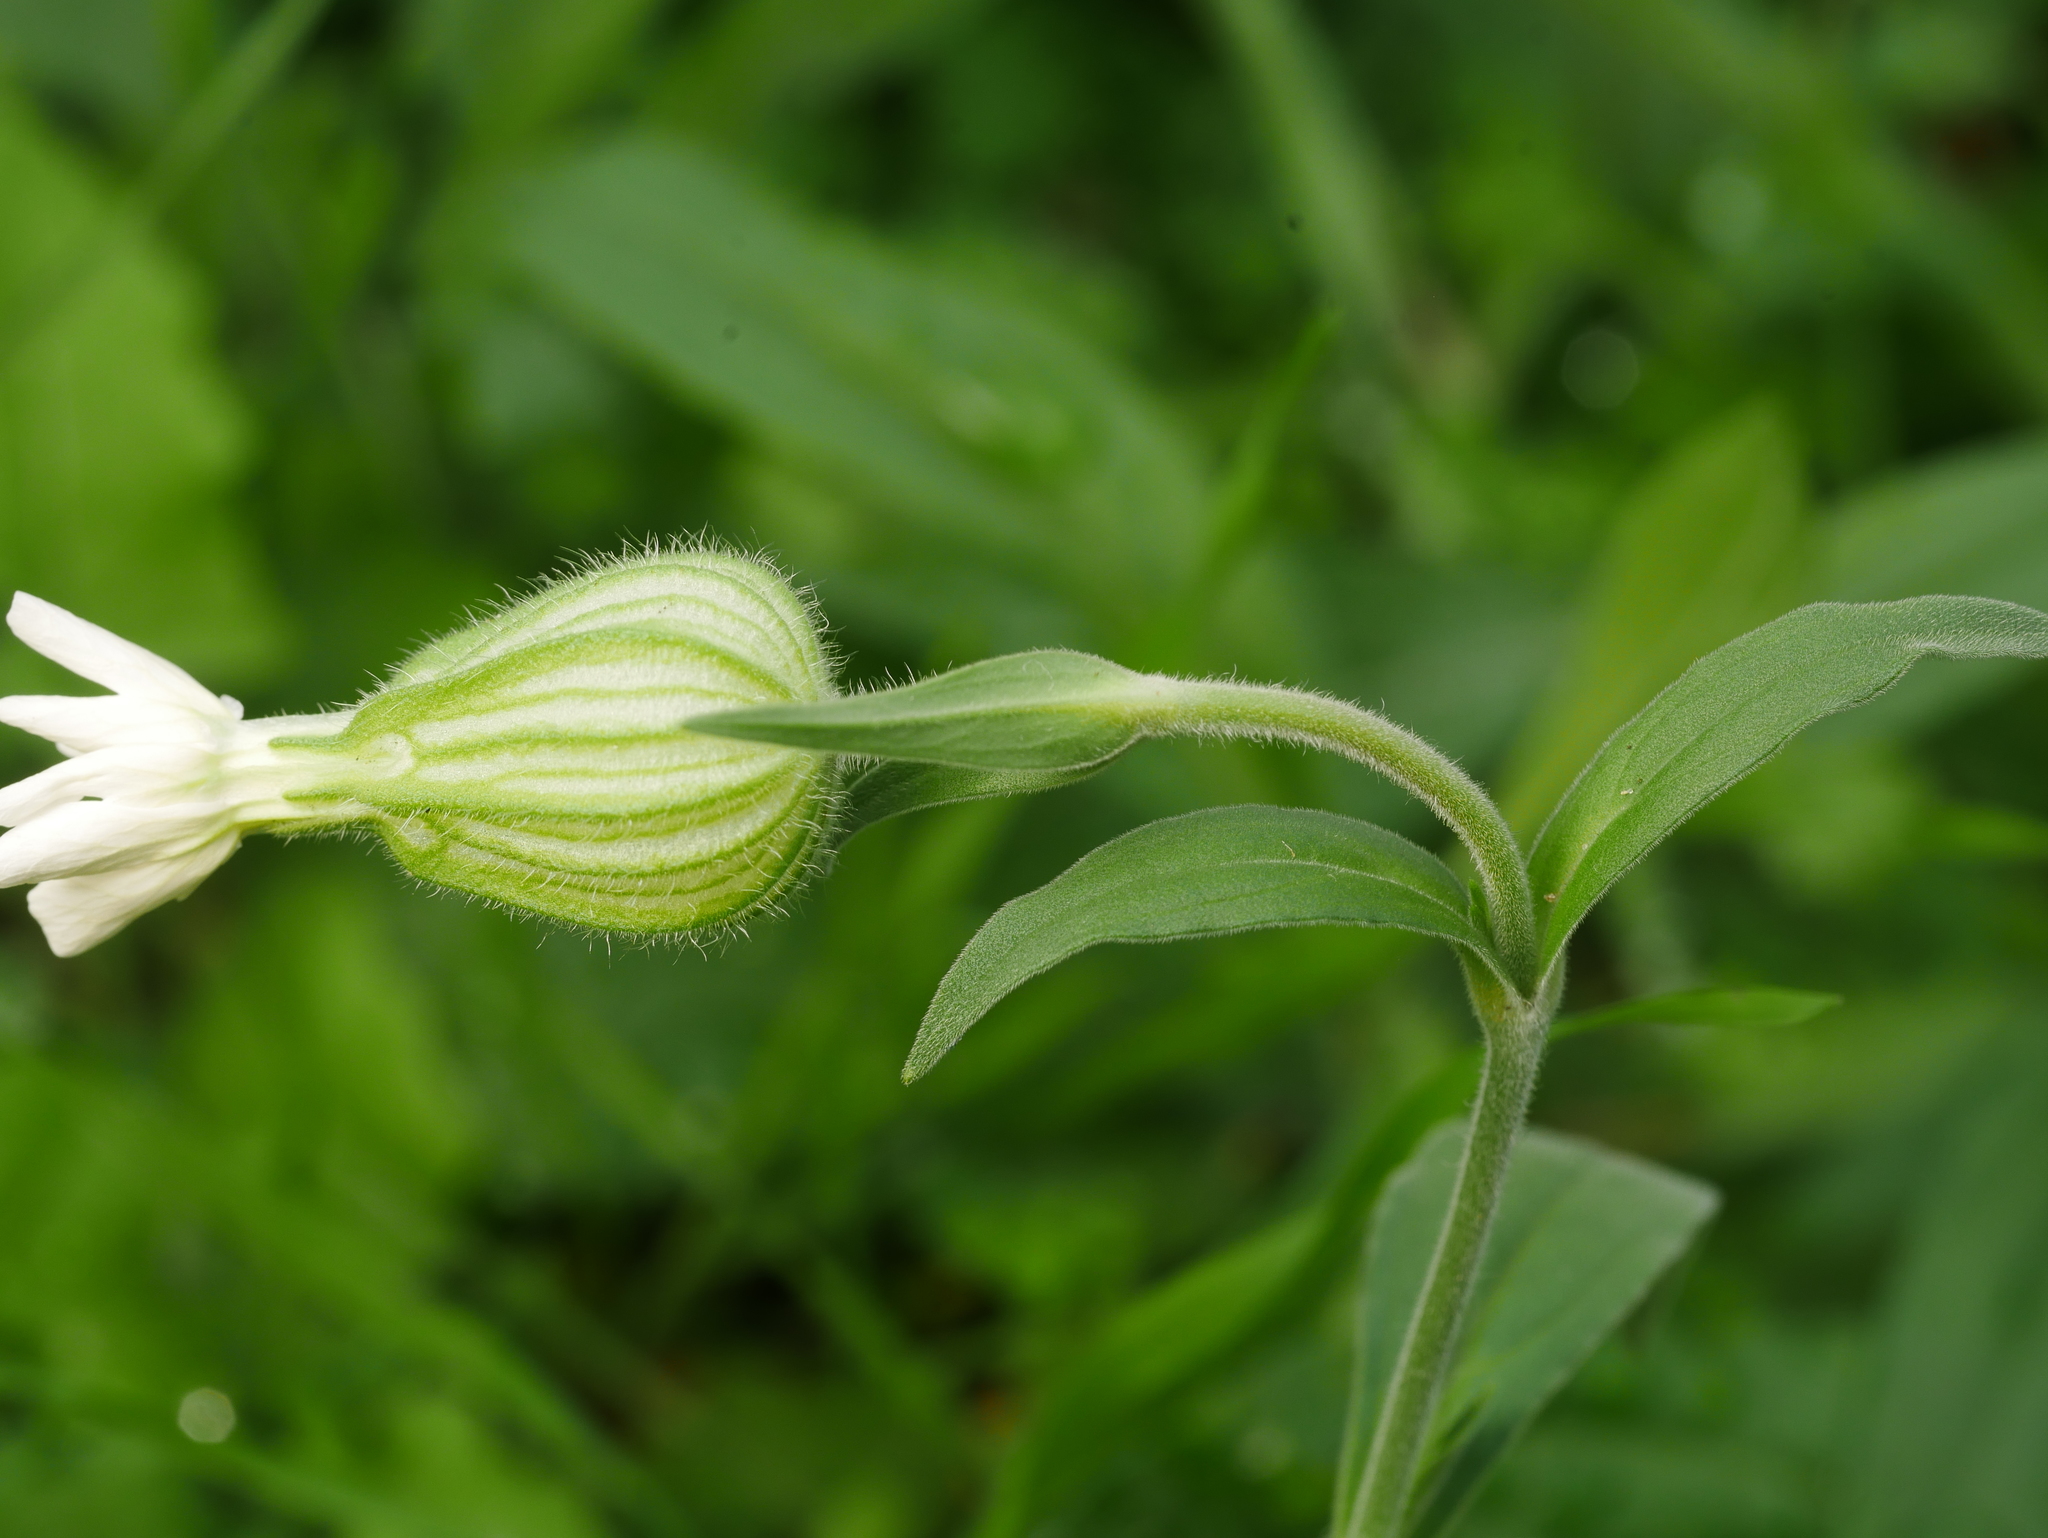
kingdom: Plantae
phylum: Tracheophyta
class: Magnoliopsida
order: Caryophyllales
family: Caryophyllaceae
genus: Silene
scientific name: Silene latifolia
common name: White campion
